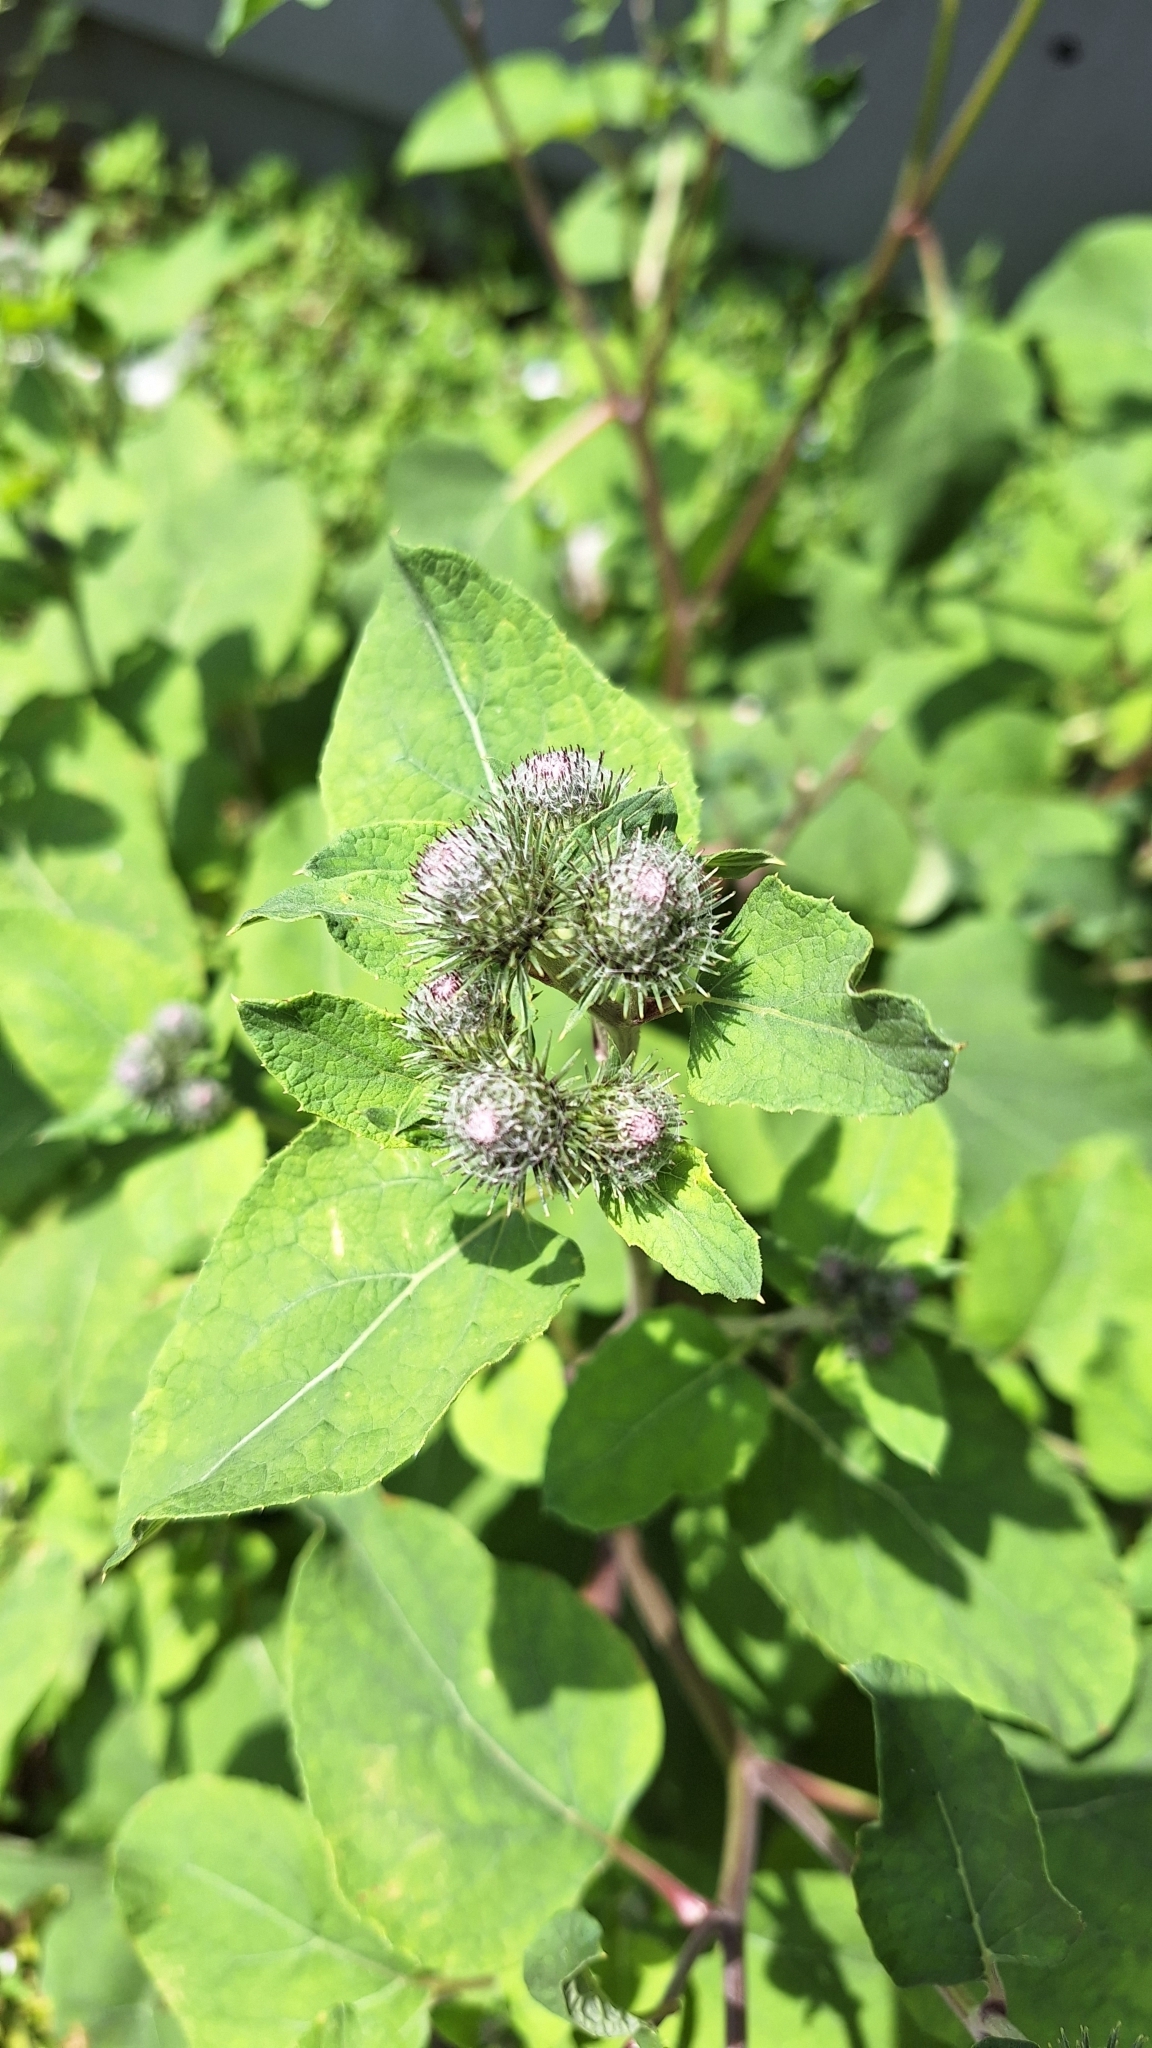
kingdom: Plantae
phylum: Tracheophyta
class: Magnoliopsida
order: Asterales
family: Asteraceae
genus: Arctium
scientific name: Arctium ambiguum
